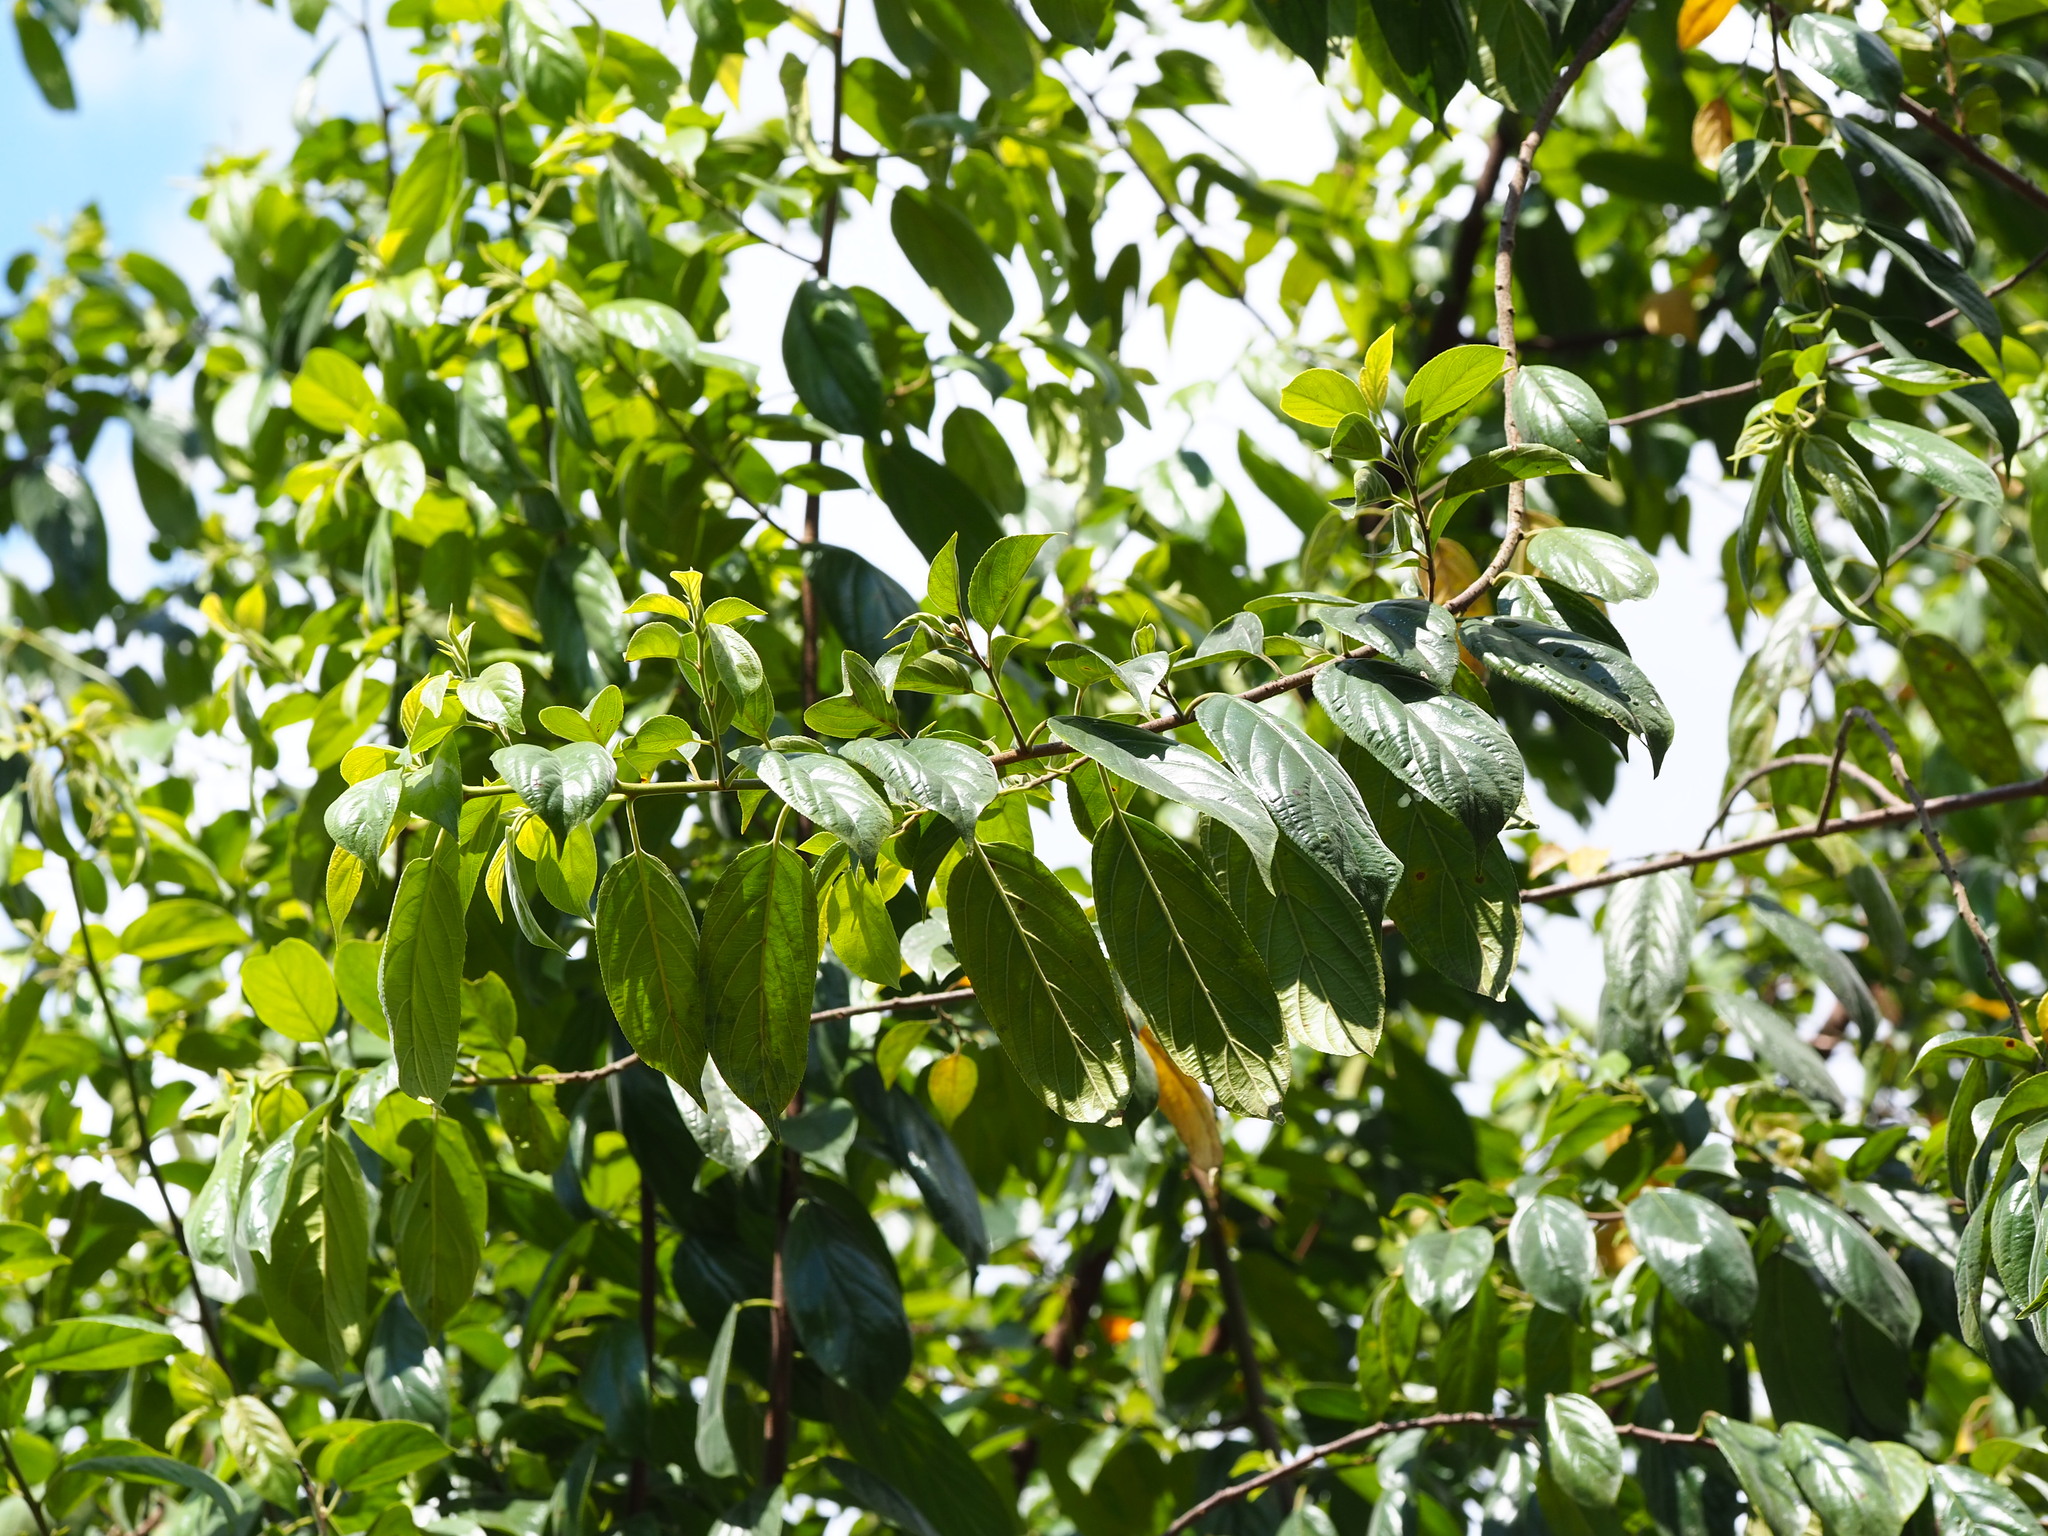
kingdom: Plantae
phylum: Tracheophyta
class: Magnoliopsida
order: Rosales
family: Rhamnaceae
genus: Rhamnus
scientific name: Rhamnus formosana
